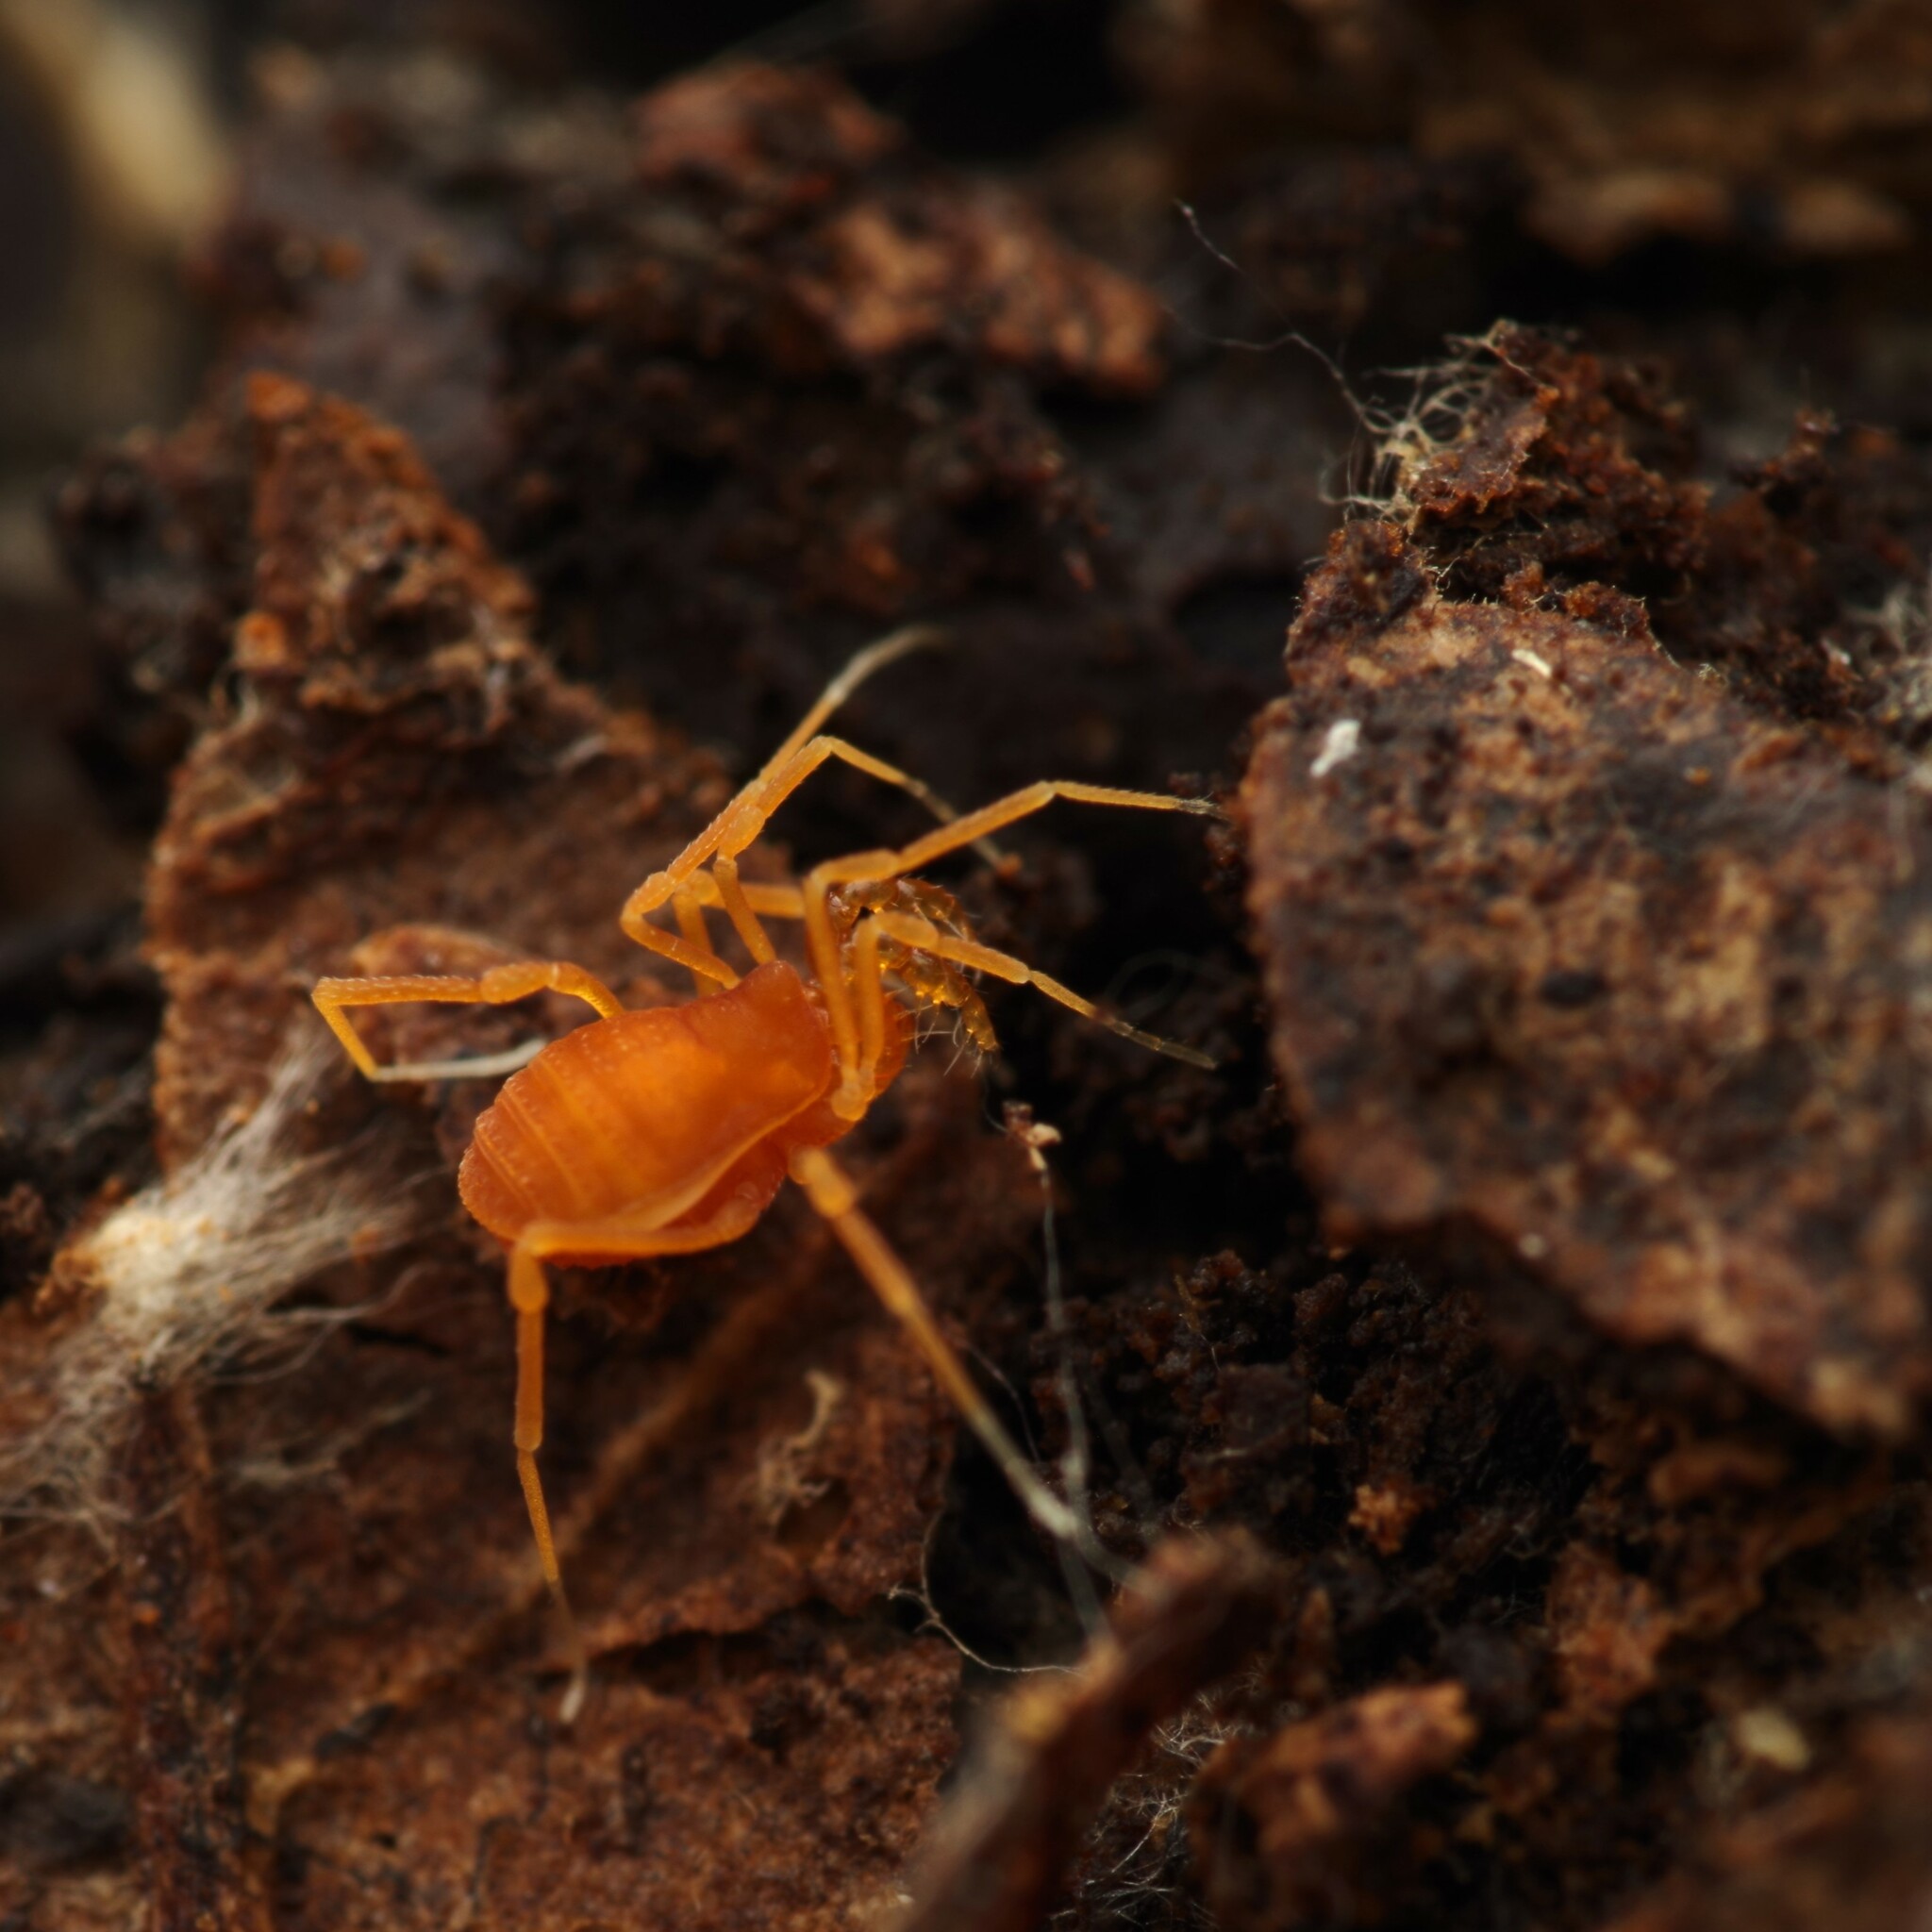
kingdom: Animalia
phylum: Arthropoda
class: Arachnida
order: Opiliones
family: Phalangodidae
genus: Scotolemon
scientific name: Scotolemon doriae
